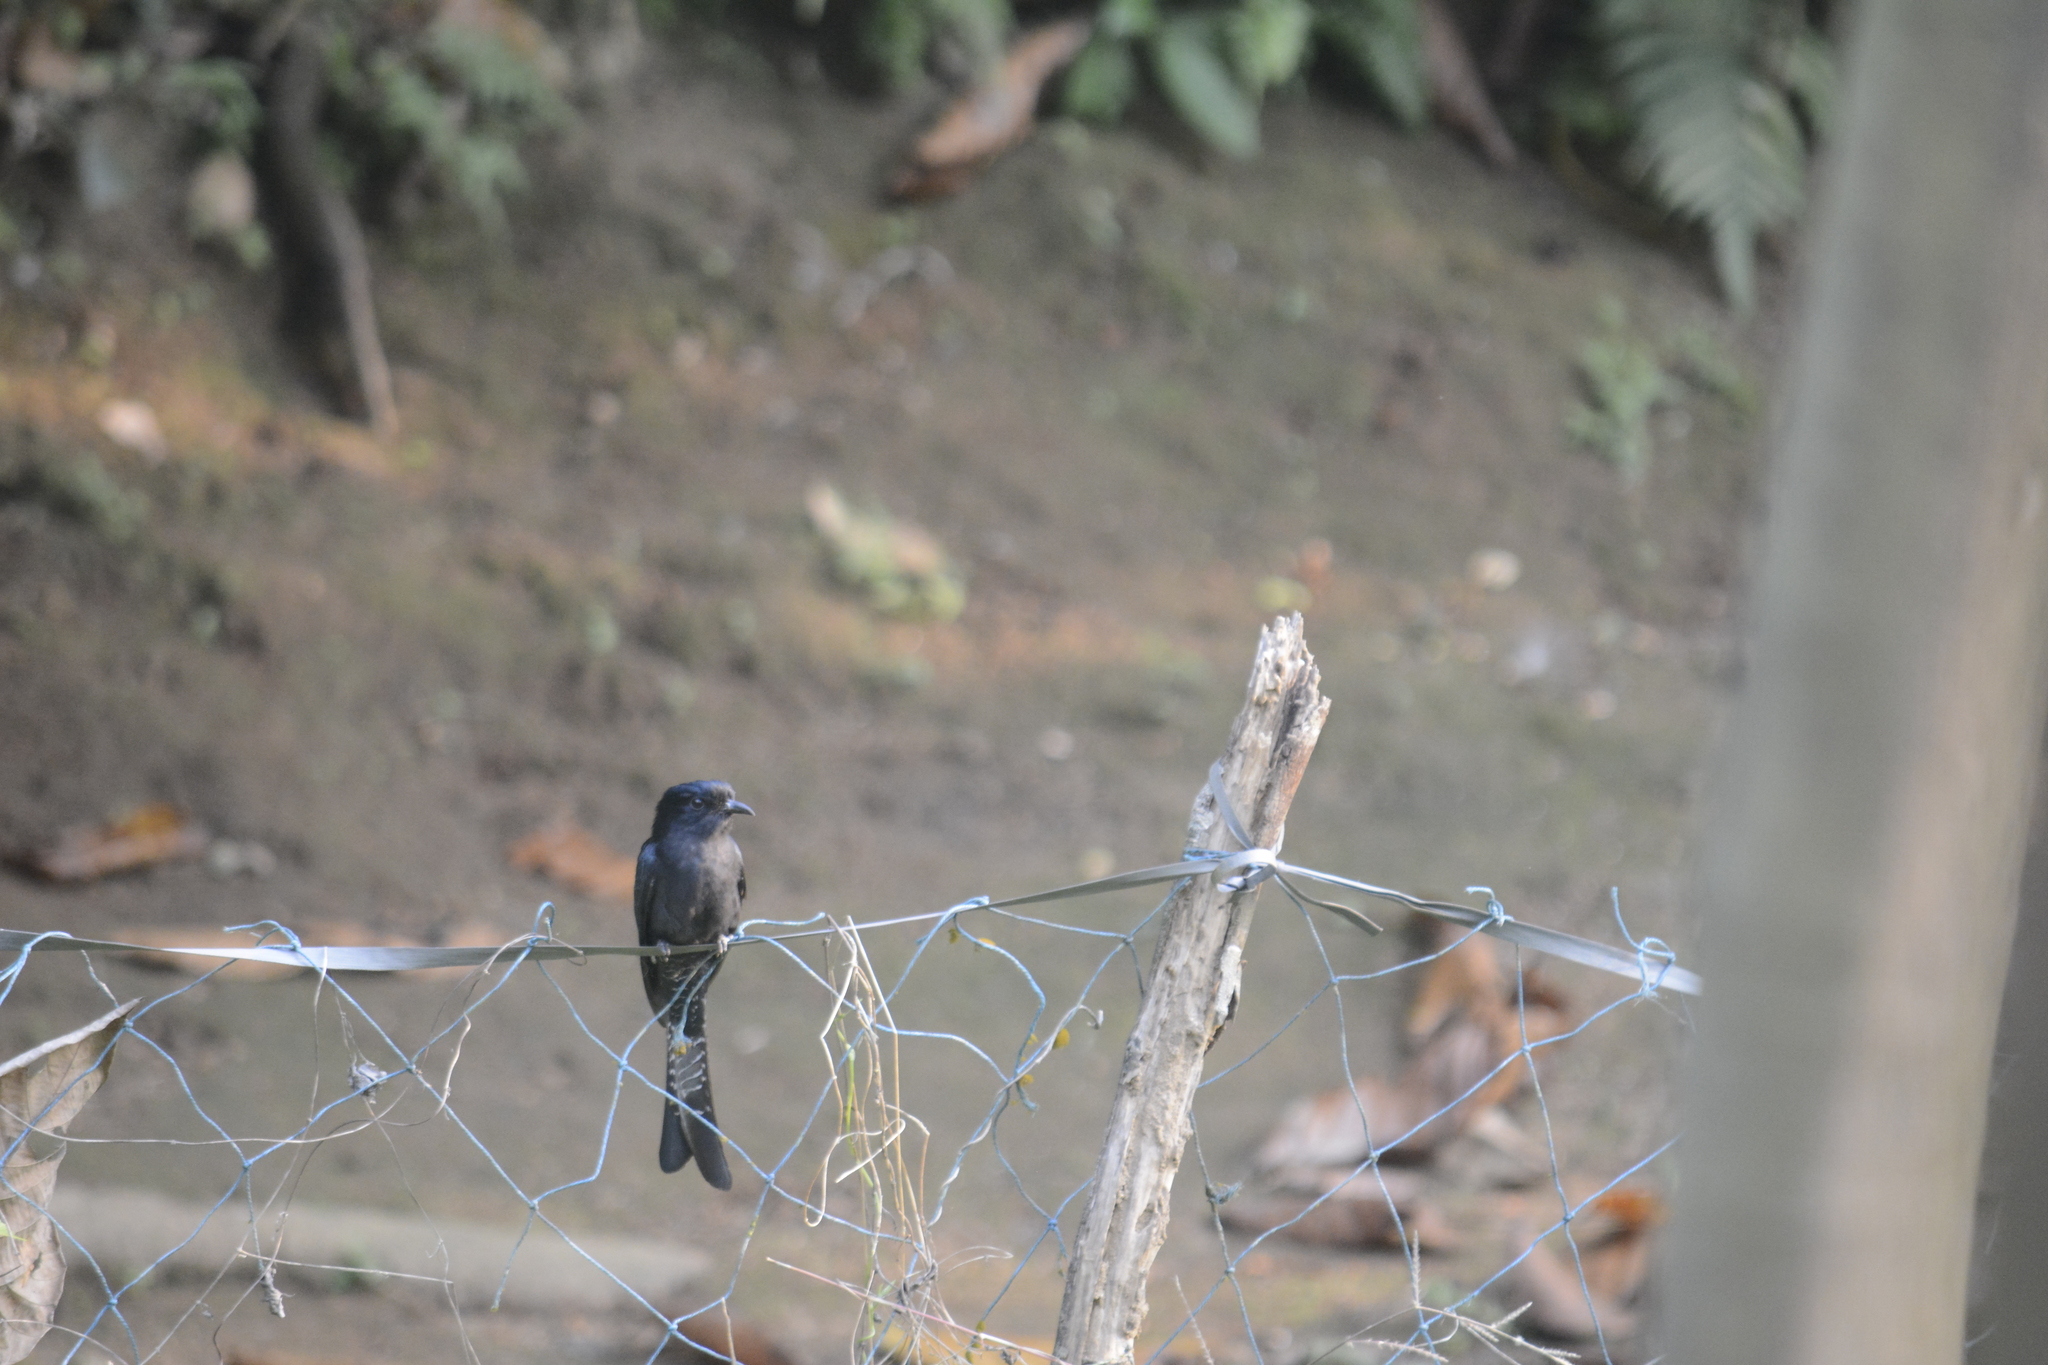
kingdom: Animalia
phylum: Chordata
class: Aves
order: Cuculiformes
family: Cuculidae
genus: Surniculus
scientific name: Surniculus lugubris
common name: Square-tailed drongo-cuckoo
